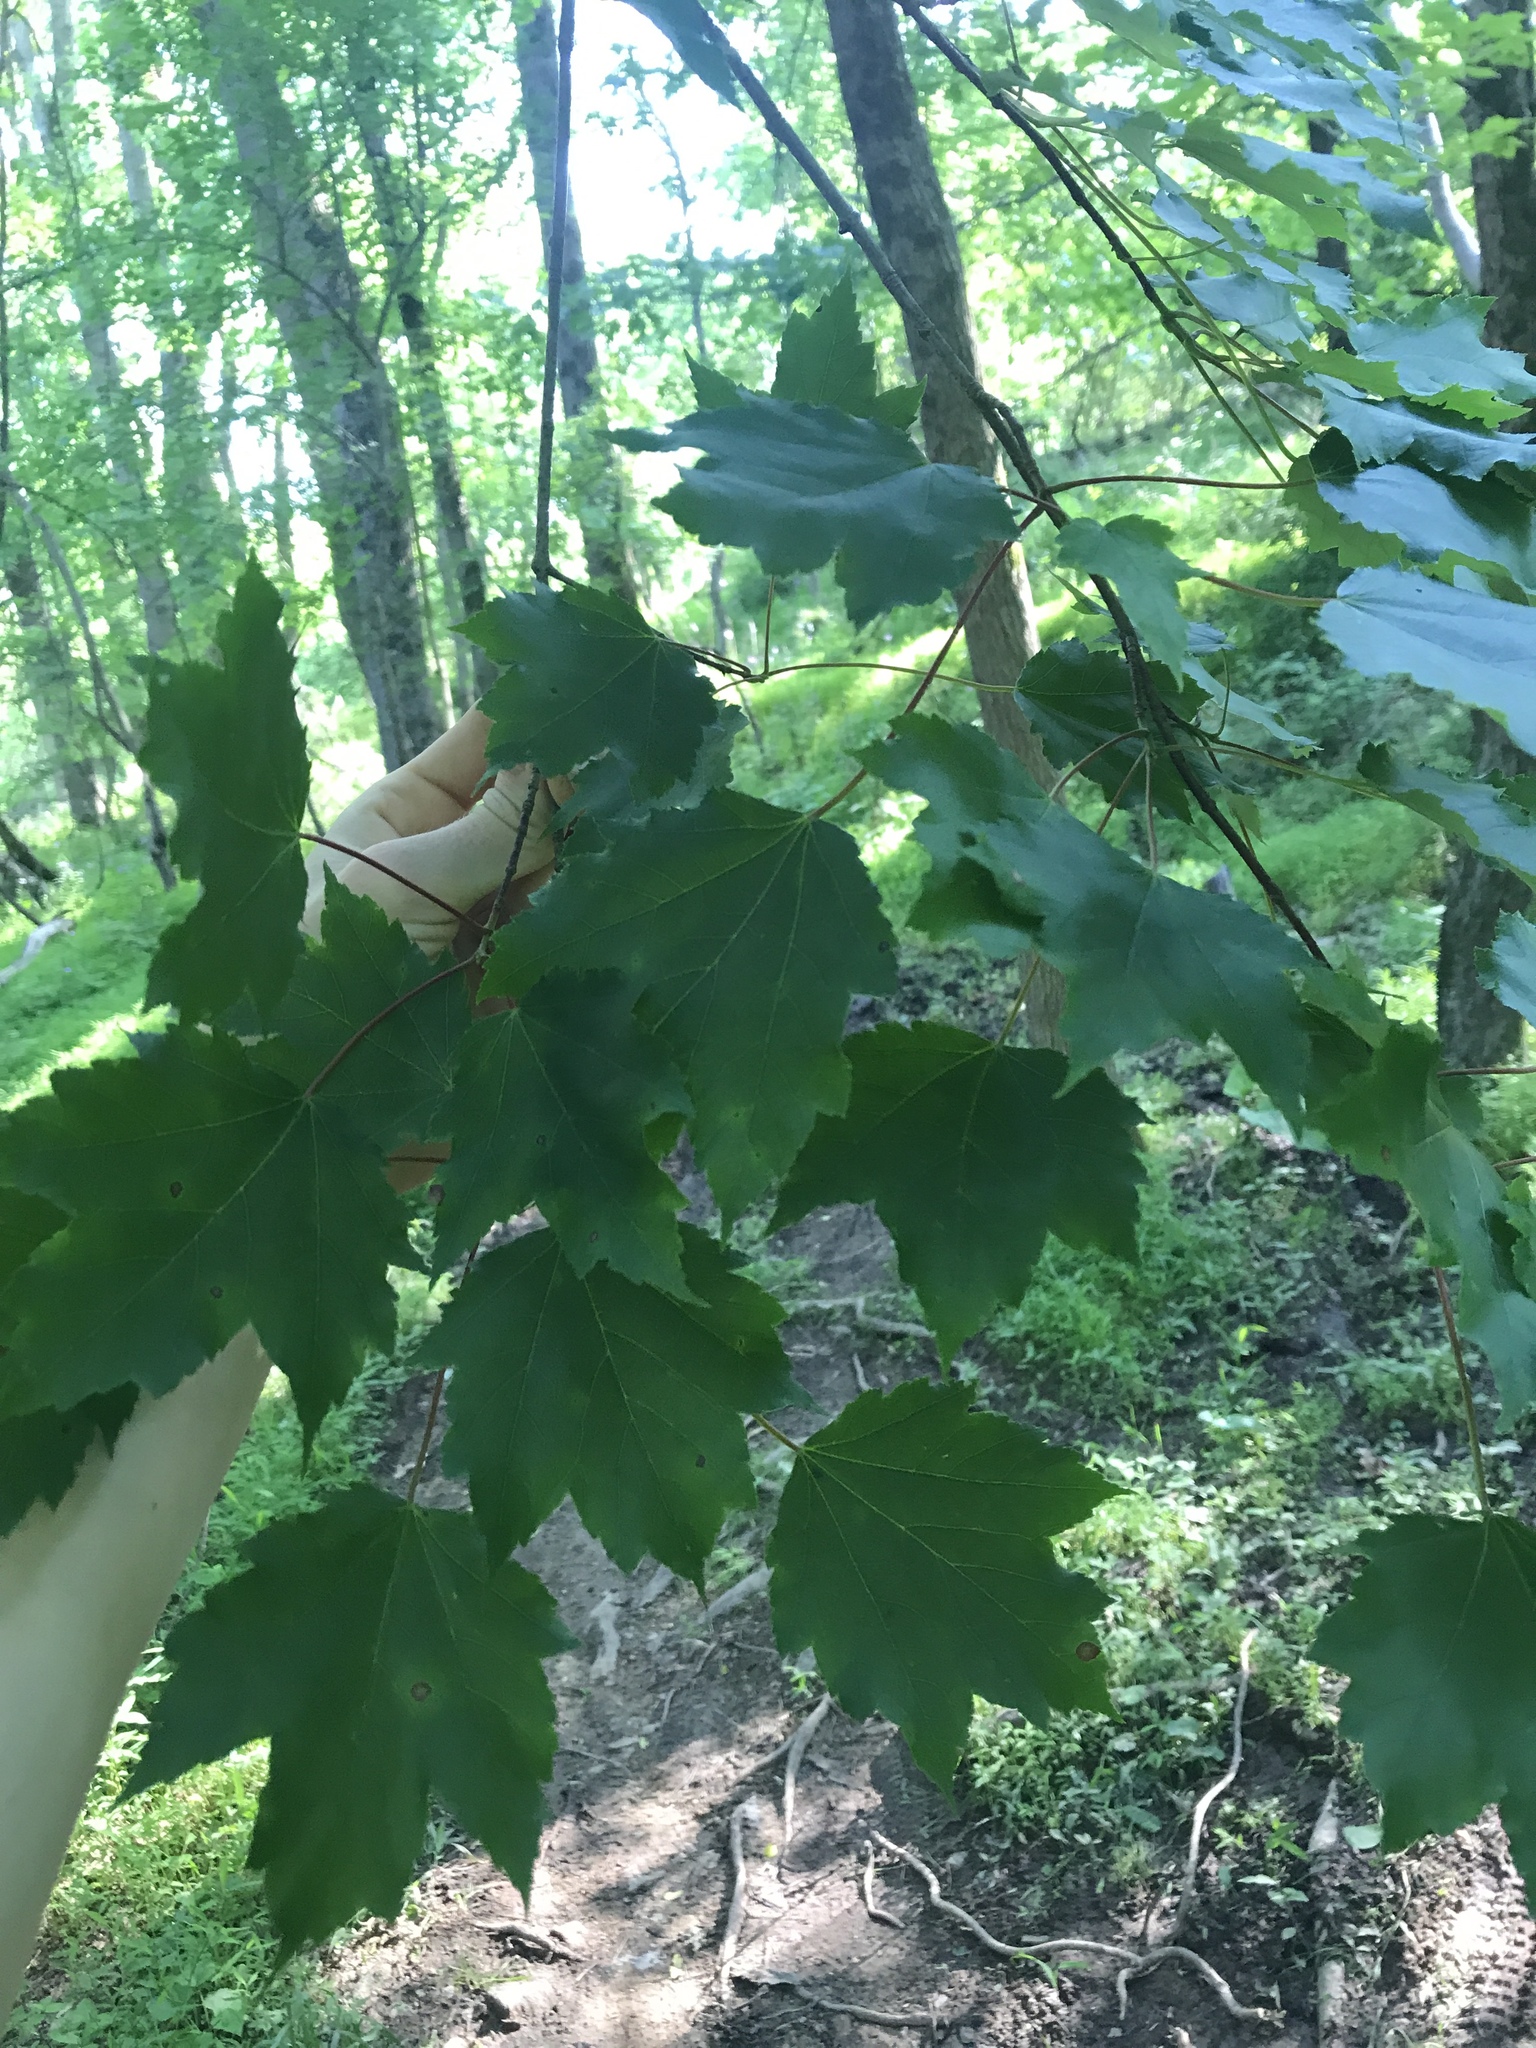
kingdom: Plantae
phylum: Tracheophyta
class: Magnoliopsida
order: Sapindales
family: Sapindaceae
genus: Acer
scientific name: Acer rubrum
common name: Red maple
